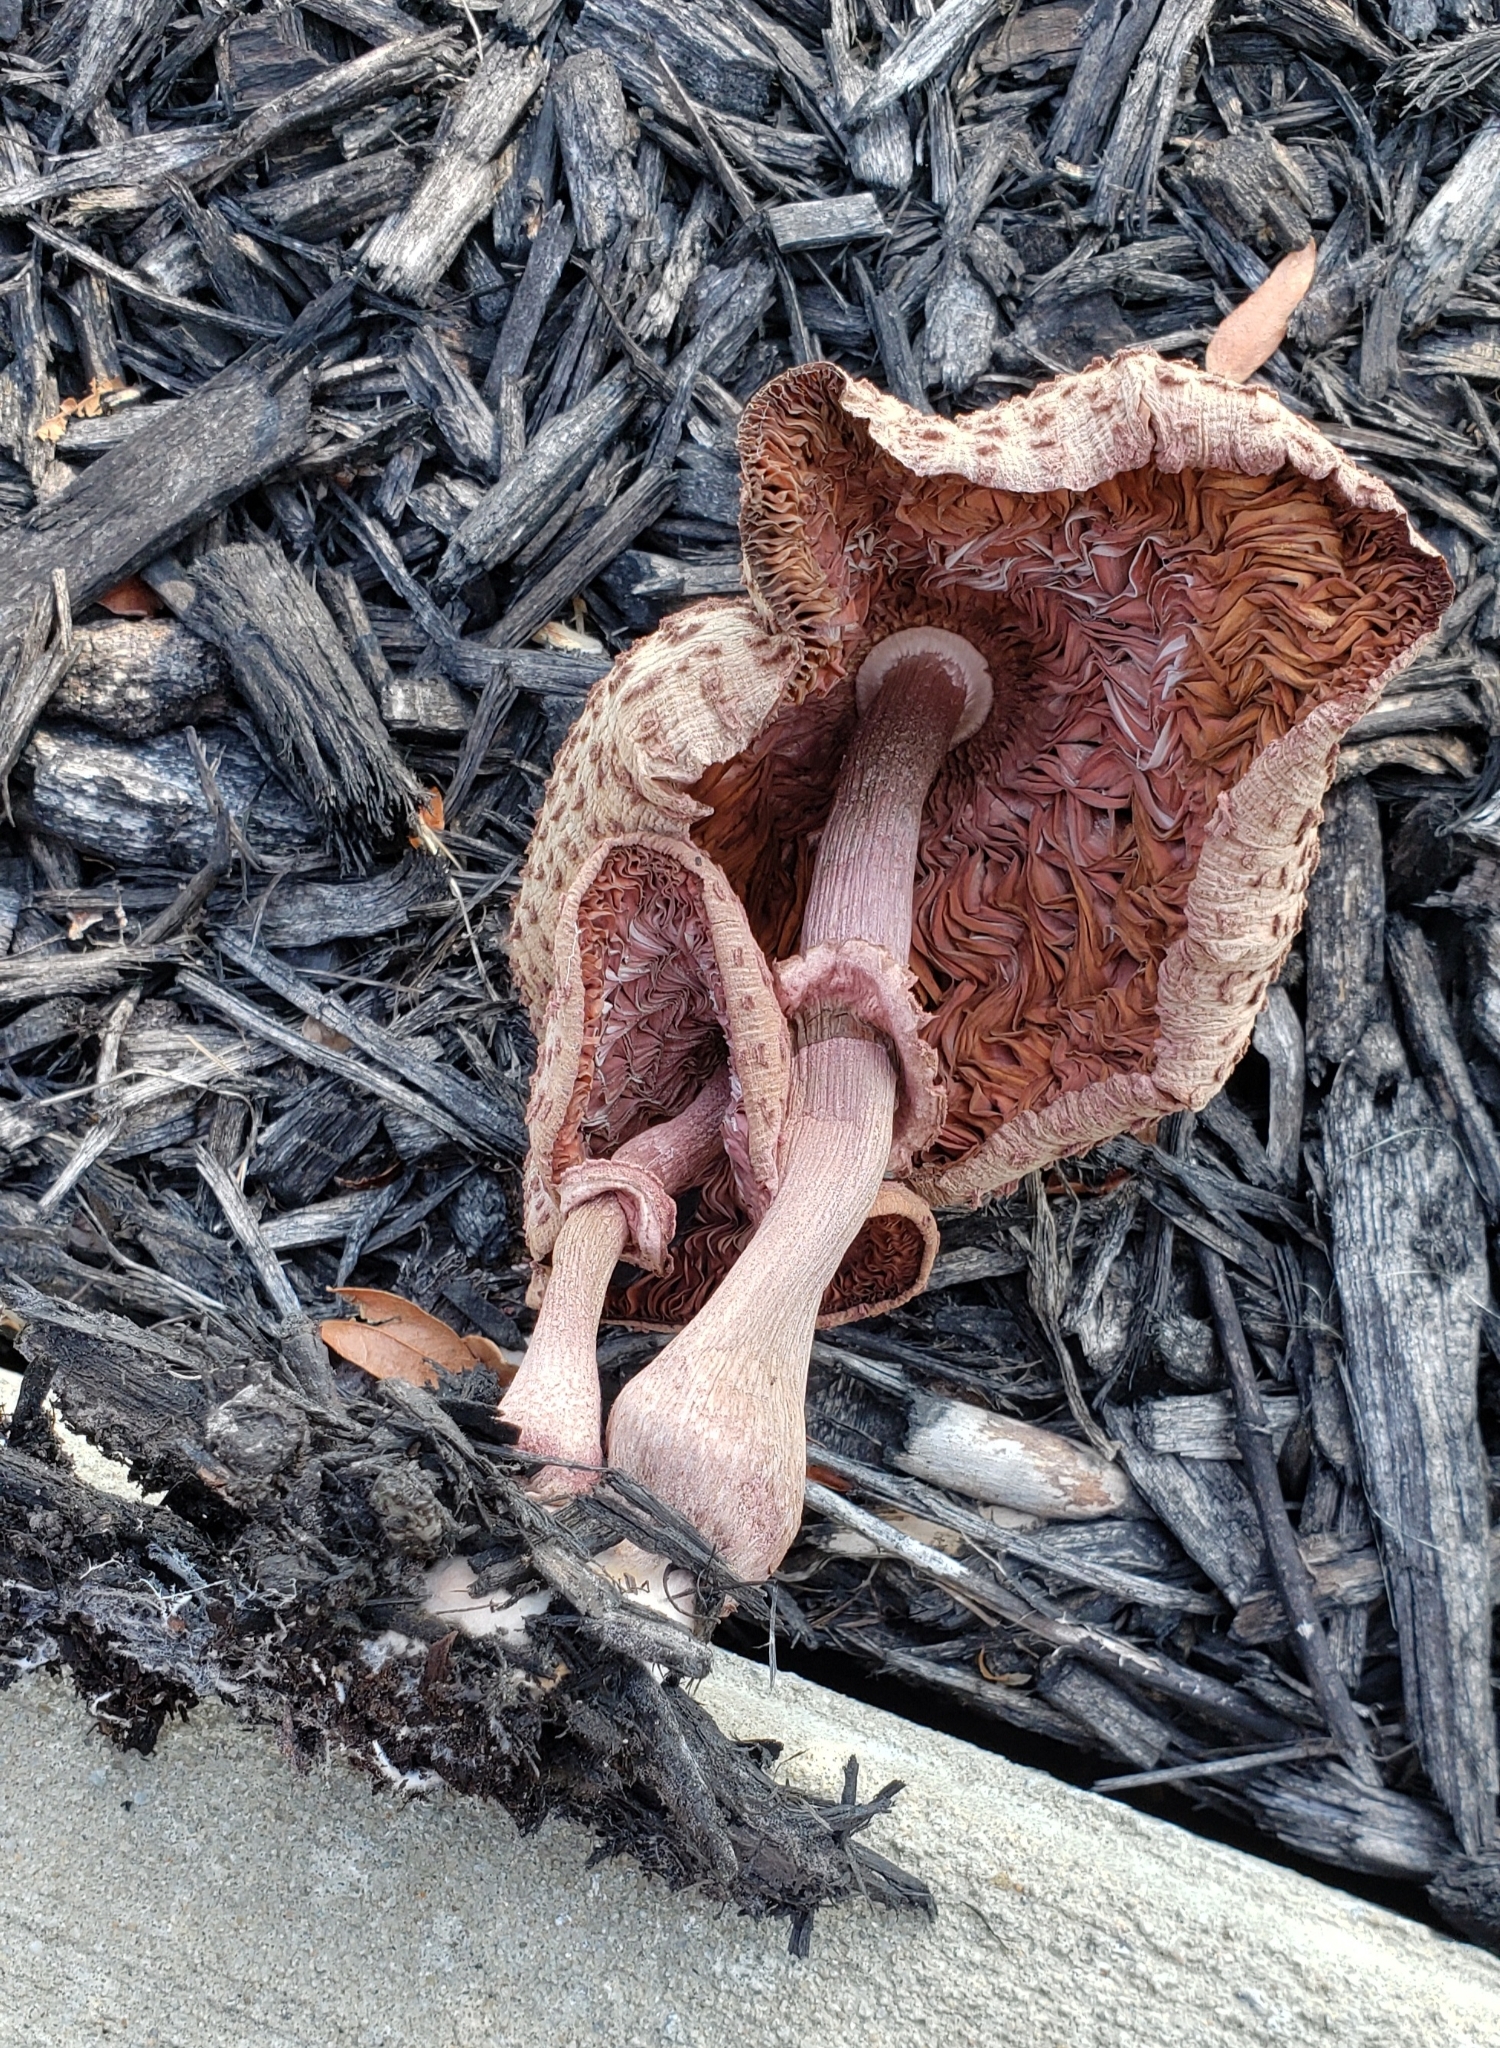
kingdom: Fungi
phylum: Basidiomycota
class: Agaricomycetes
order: Agaricales
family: Agaricaceae
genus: Leucoagaricus
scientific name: Leucoagaricus americanus
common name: Reddening lepiota
